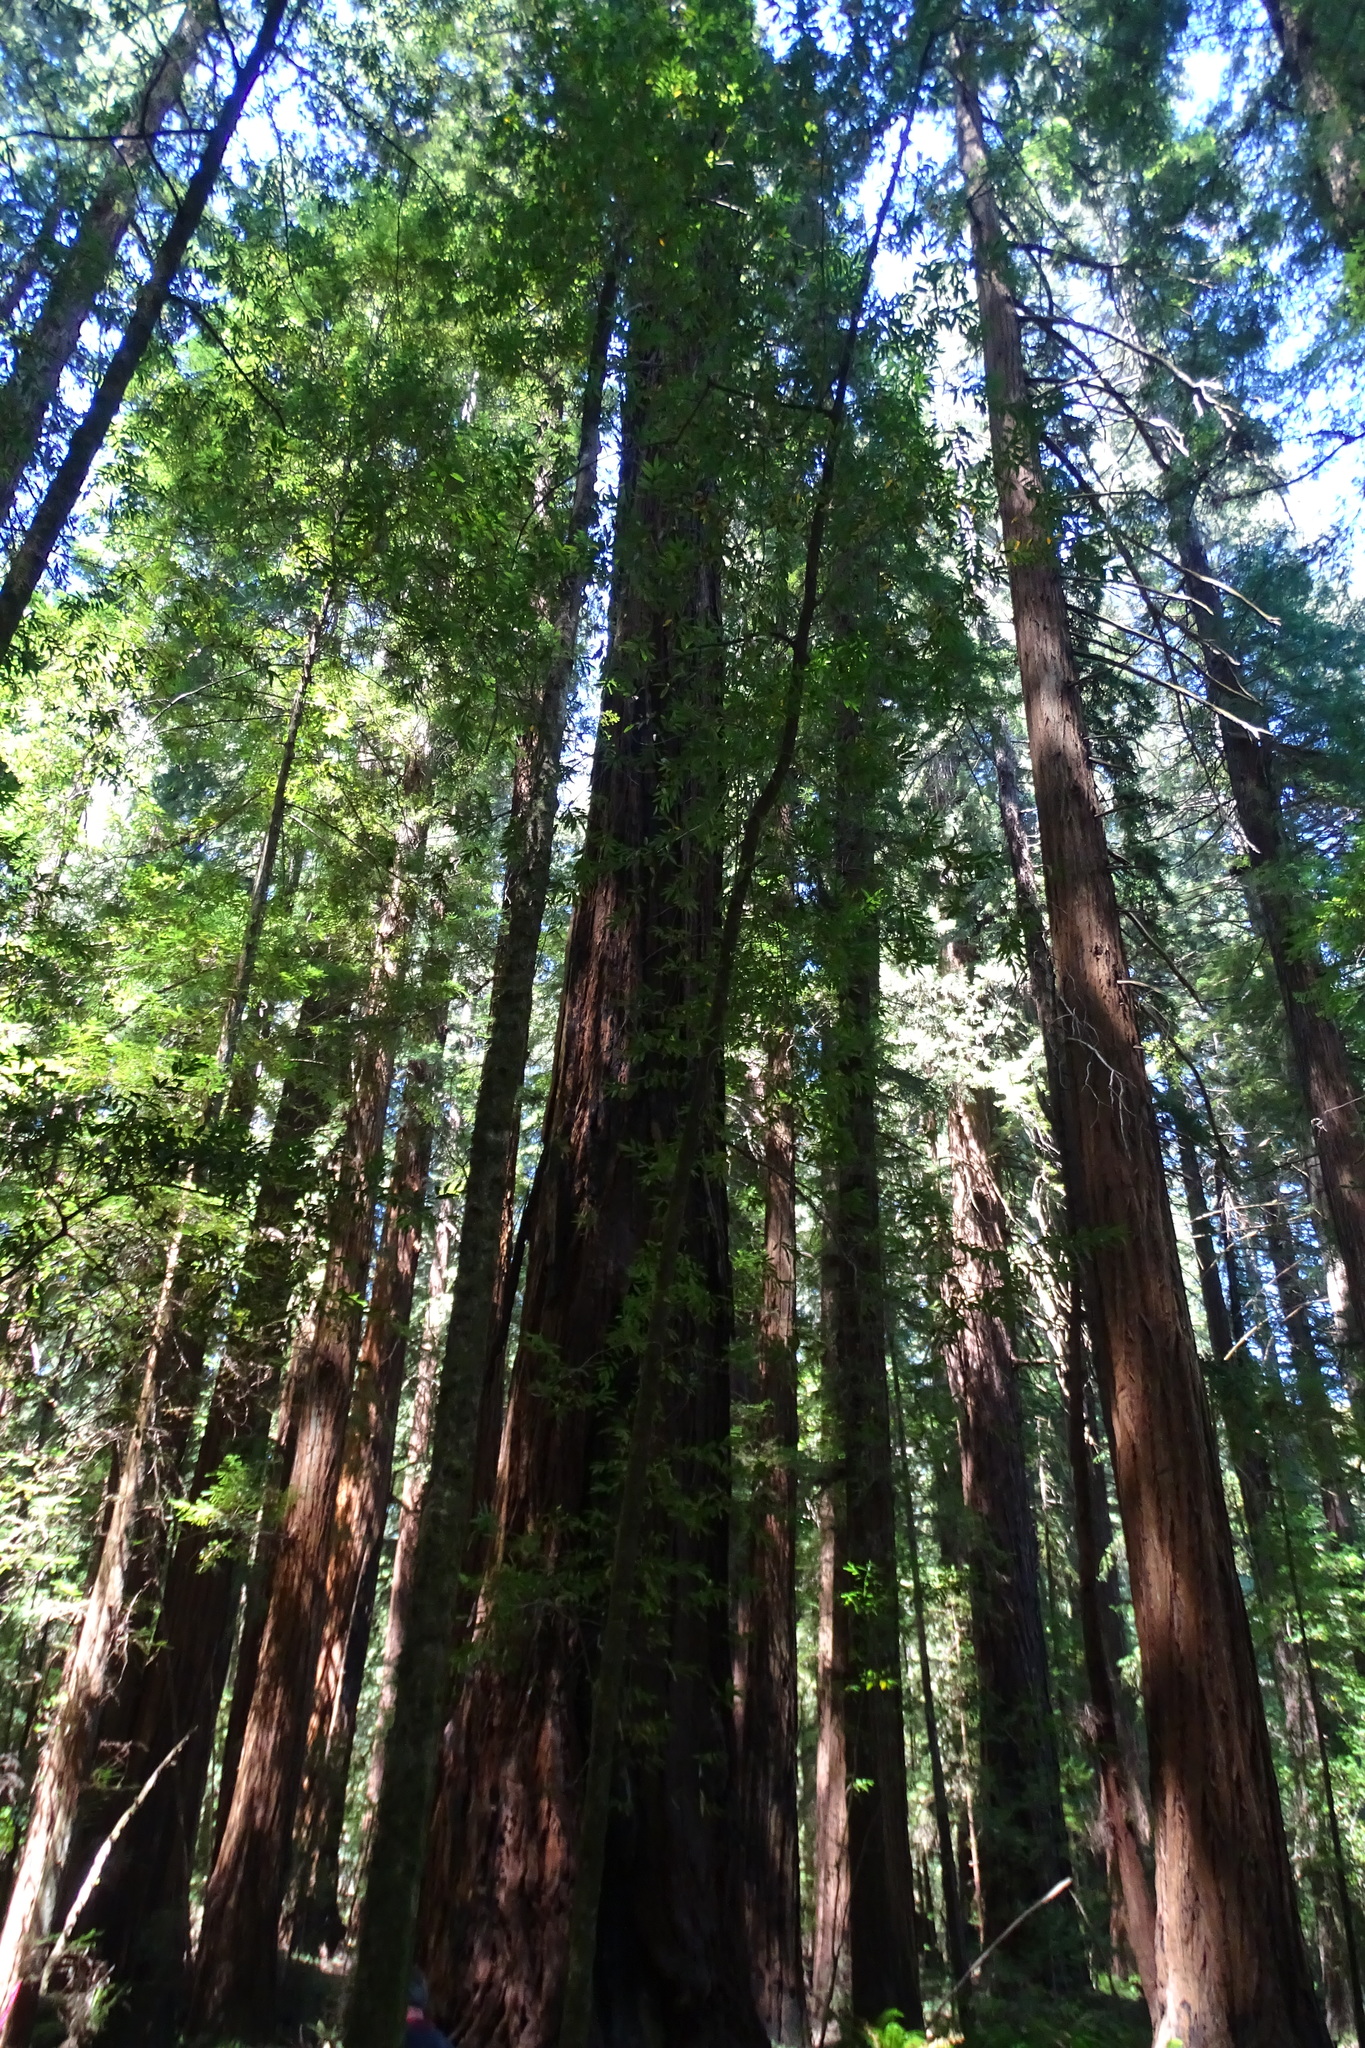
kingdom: Plantae
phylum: Tracheophyta
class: Pinopsida
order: Pinales
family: Cupressaceae
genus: Sequoia
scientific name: Sequoia sempervirens
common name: Coast redwood
